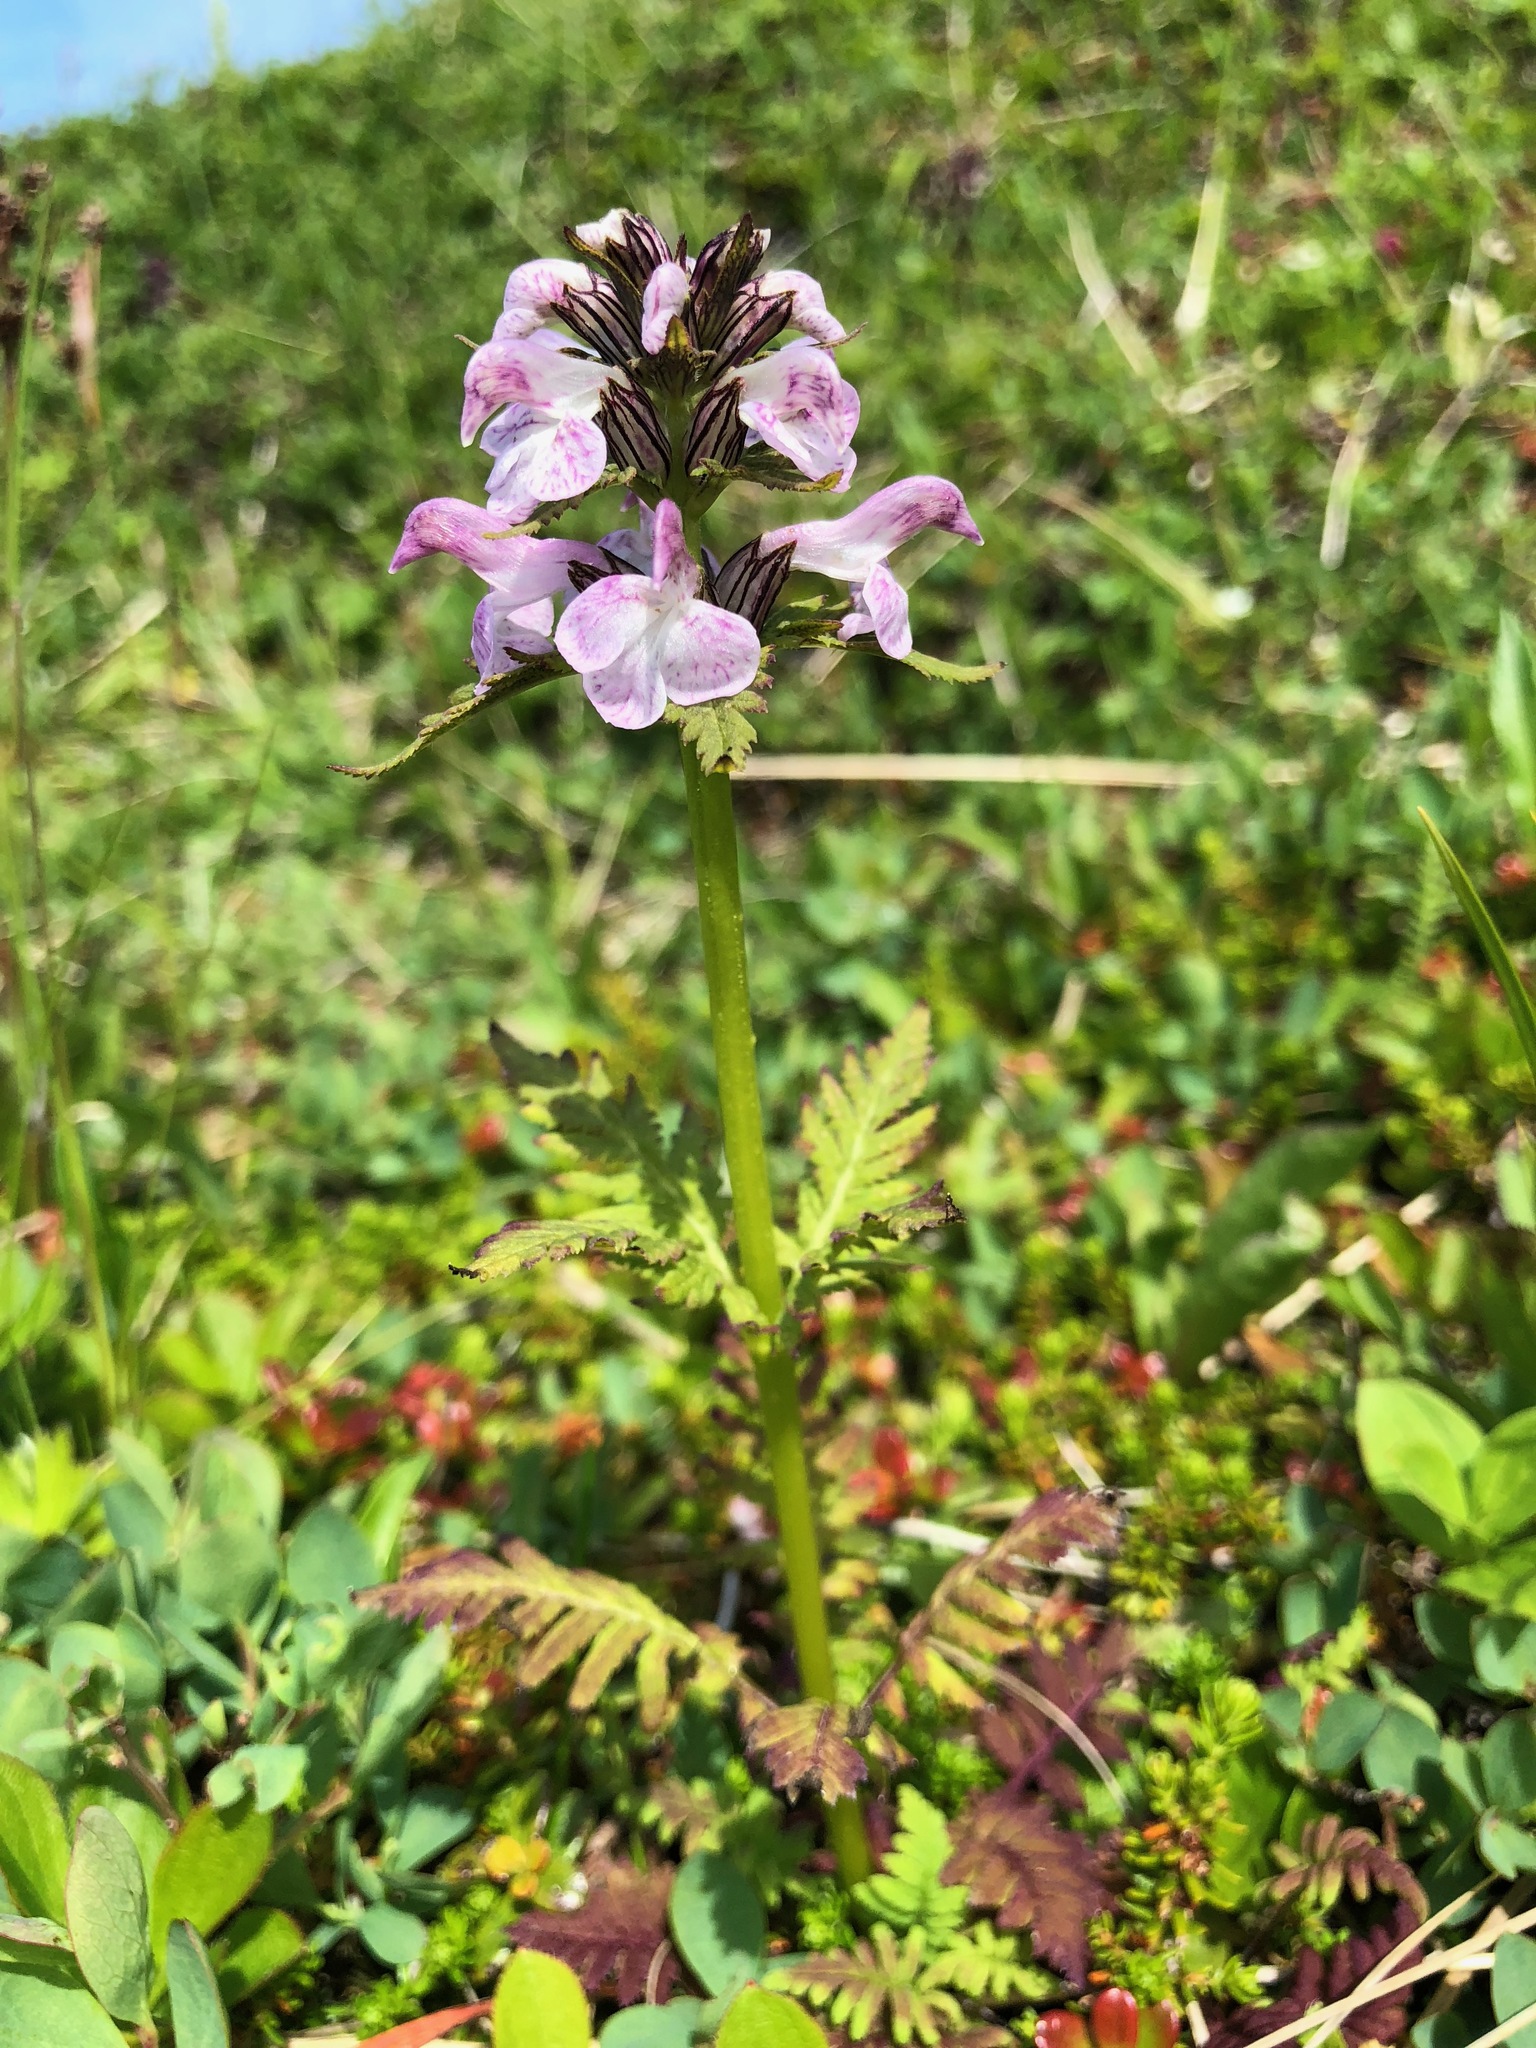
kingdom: Plantae
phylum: Tracheophyta
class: Magnoliopsida
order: Lamiales
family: Orobanchaceae
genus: Pedicularis
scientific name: Pedicularis chamissonis
